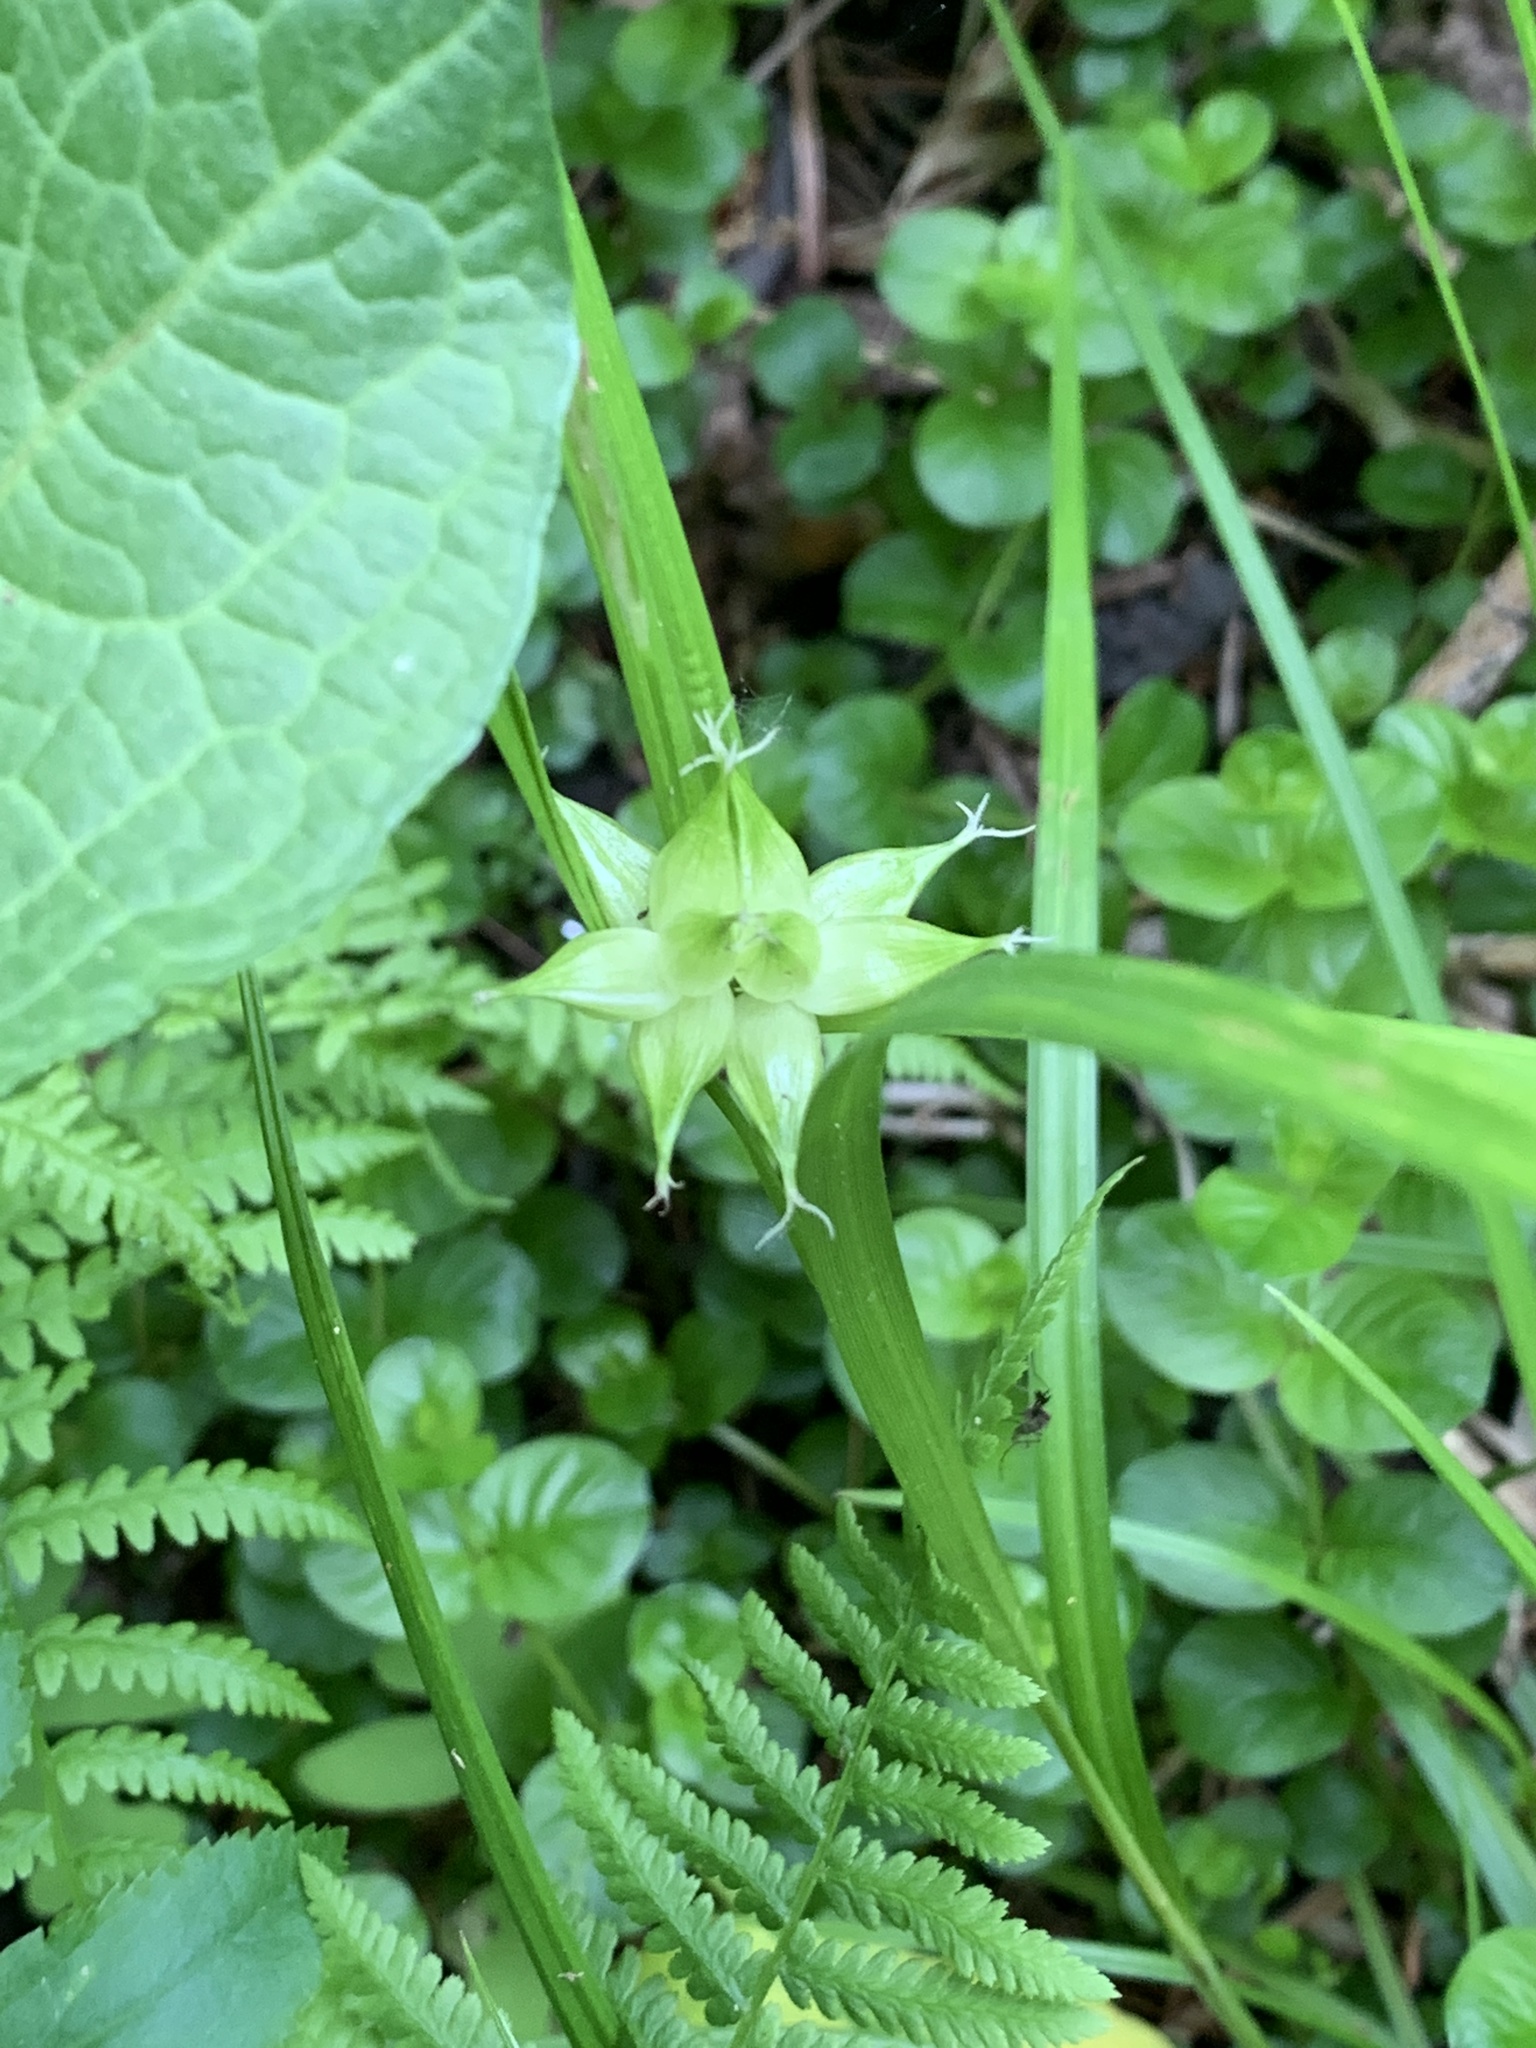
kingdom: Plantae
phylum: Tracheophyta
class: Liliopsida
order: Poales
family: Cyperaceae
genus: Carex
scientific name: Carex intumescens
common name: Greater bladder sedge
